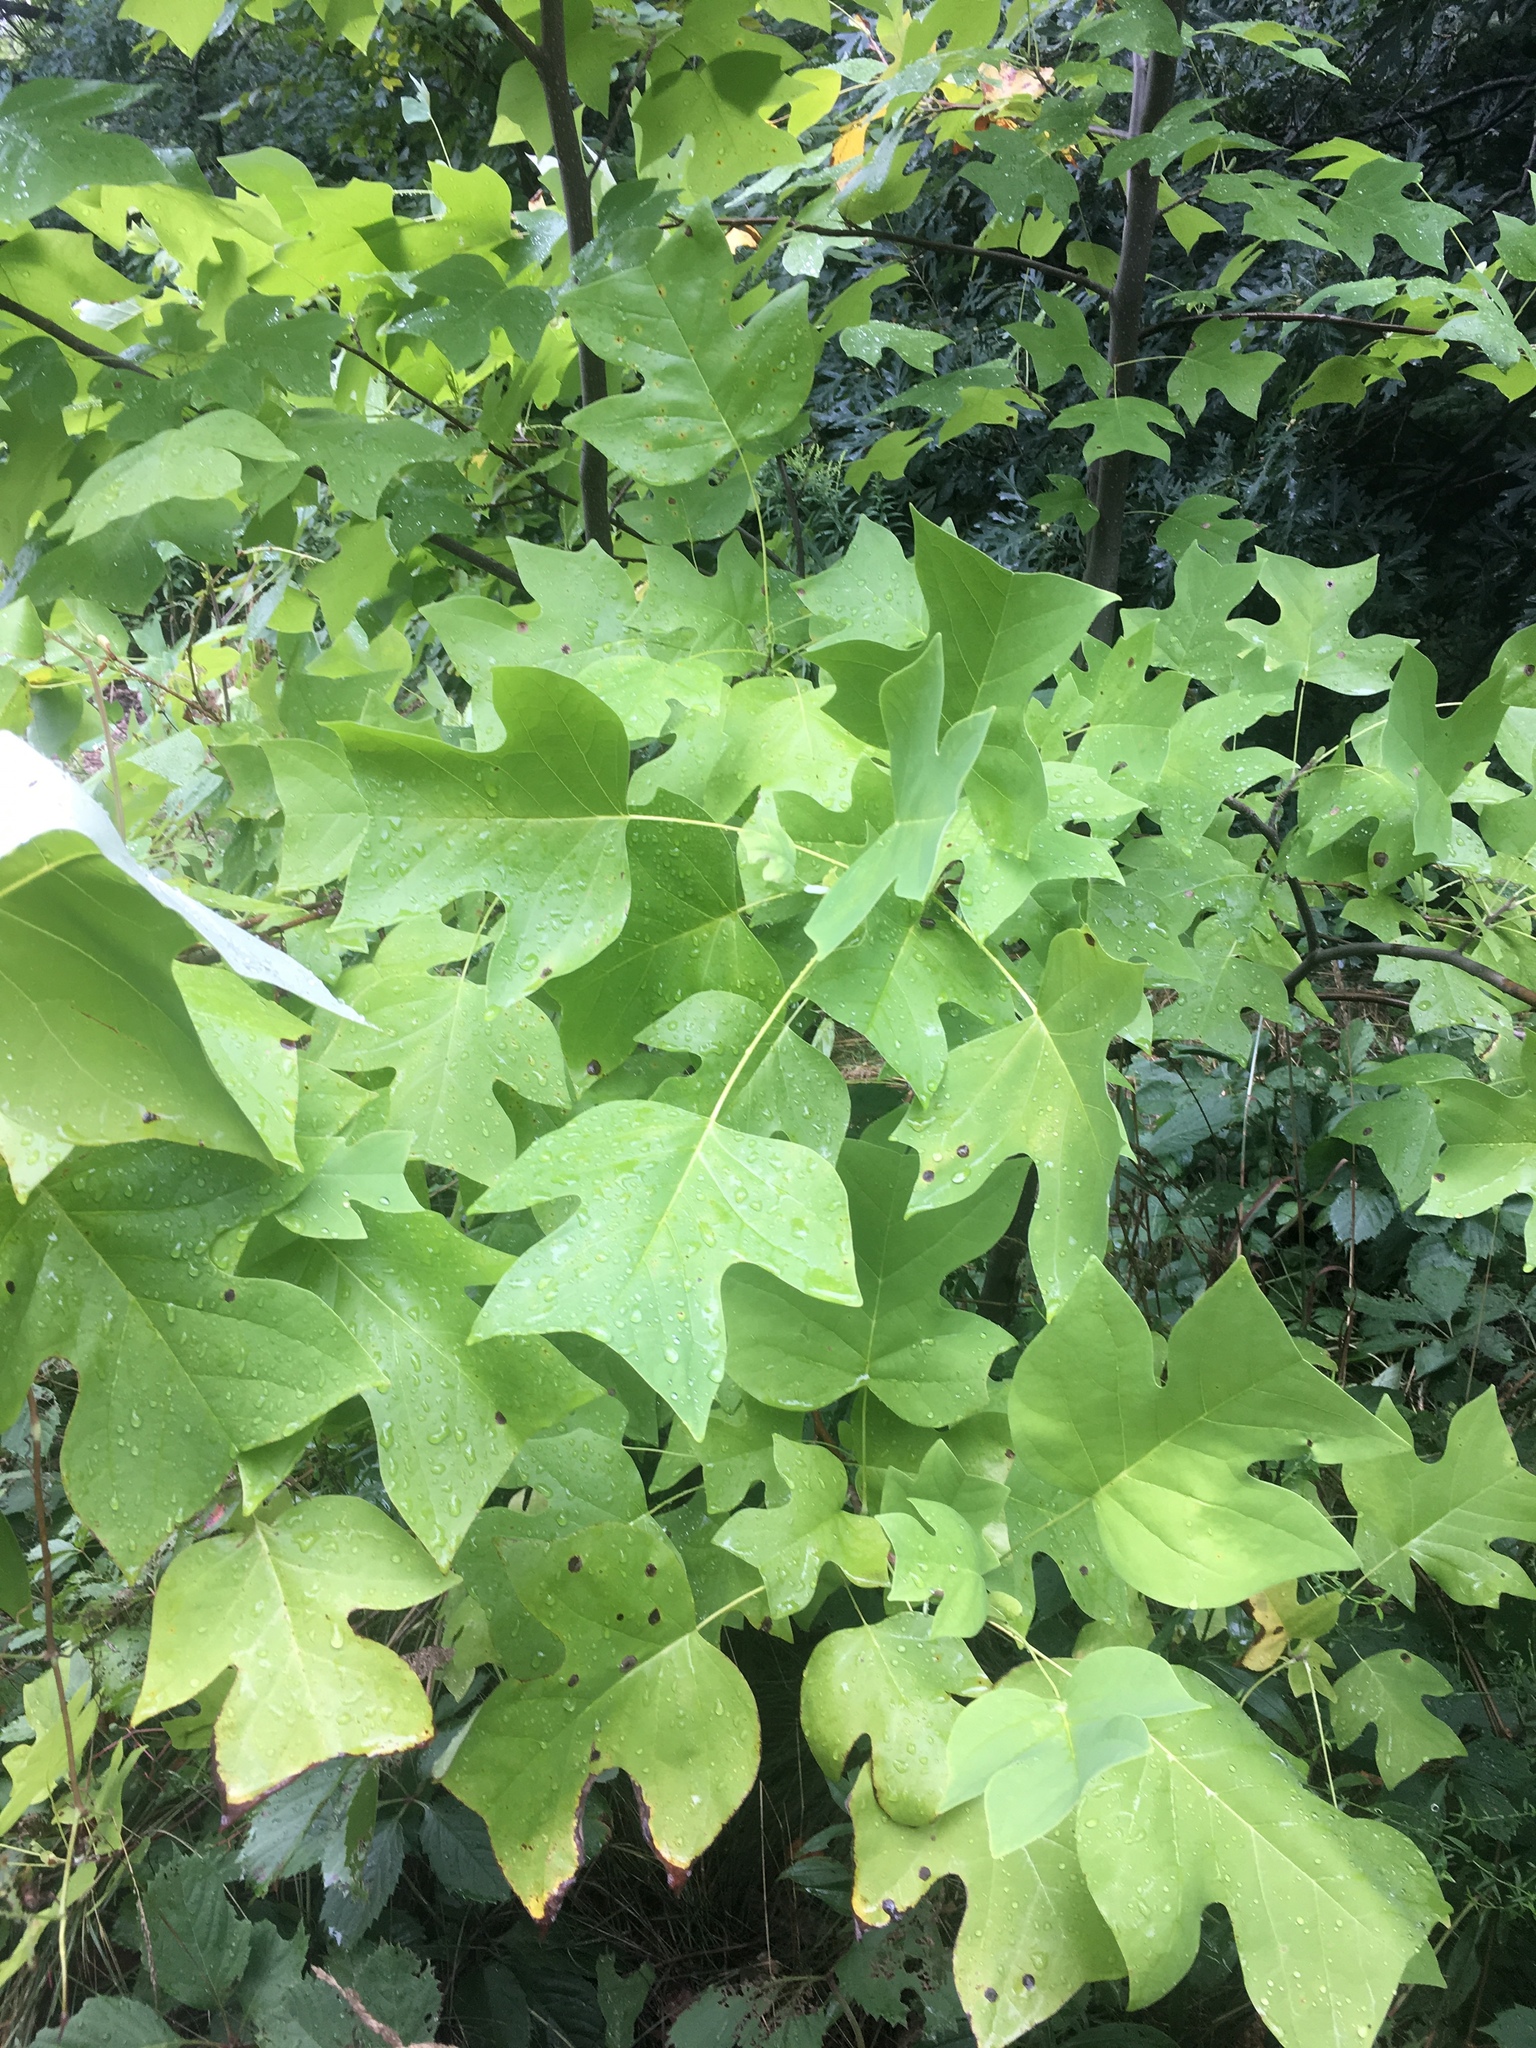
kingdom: Plantae
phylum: Tracheophyta
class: Magnoliopsida
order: Magnoliales
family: Magnoliaceae
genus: Liriodendron
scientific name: Liriodendron tulipifera
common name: Tulip tree
